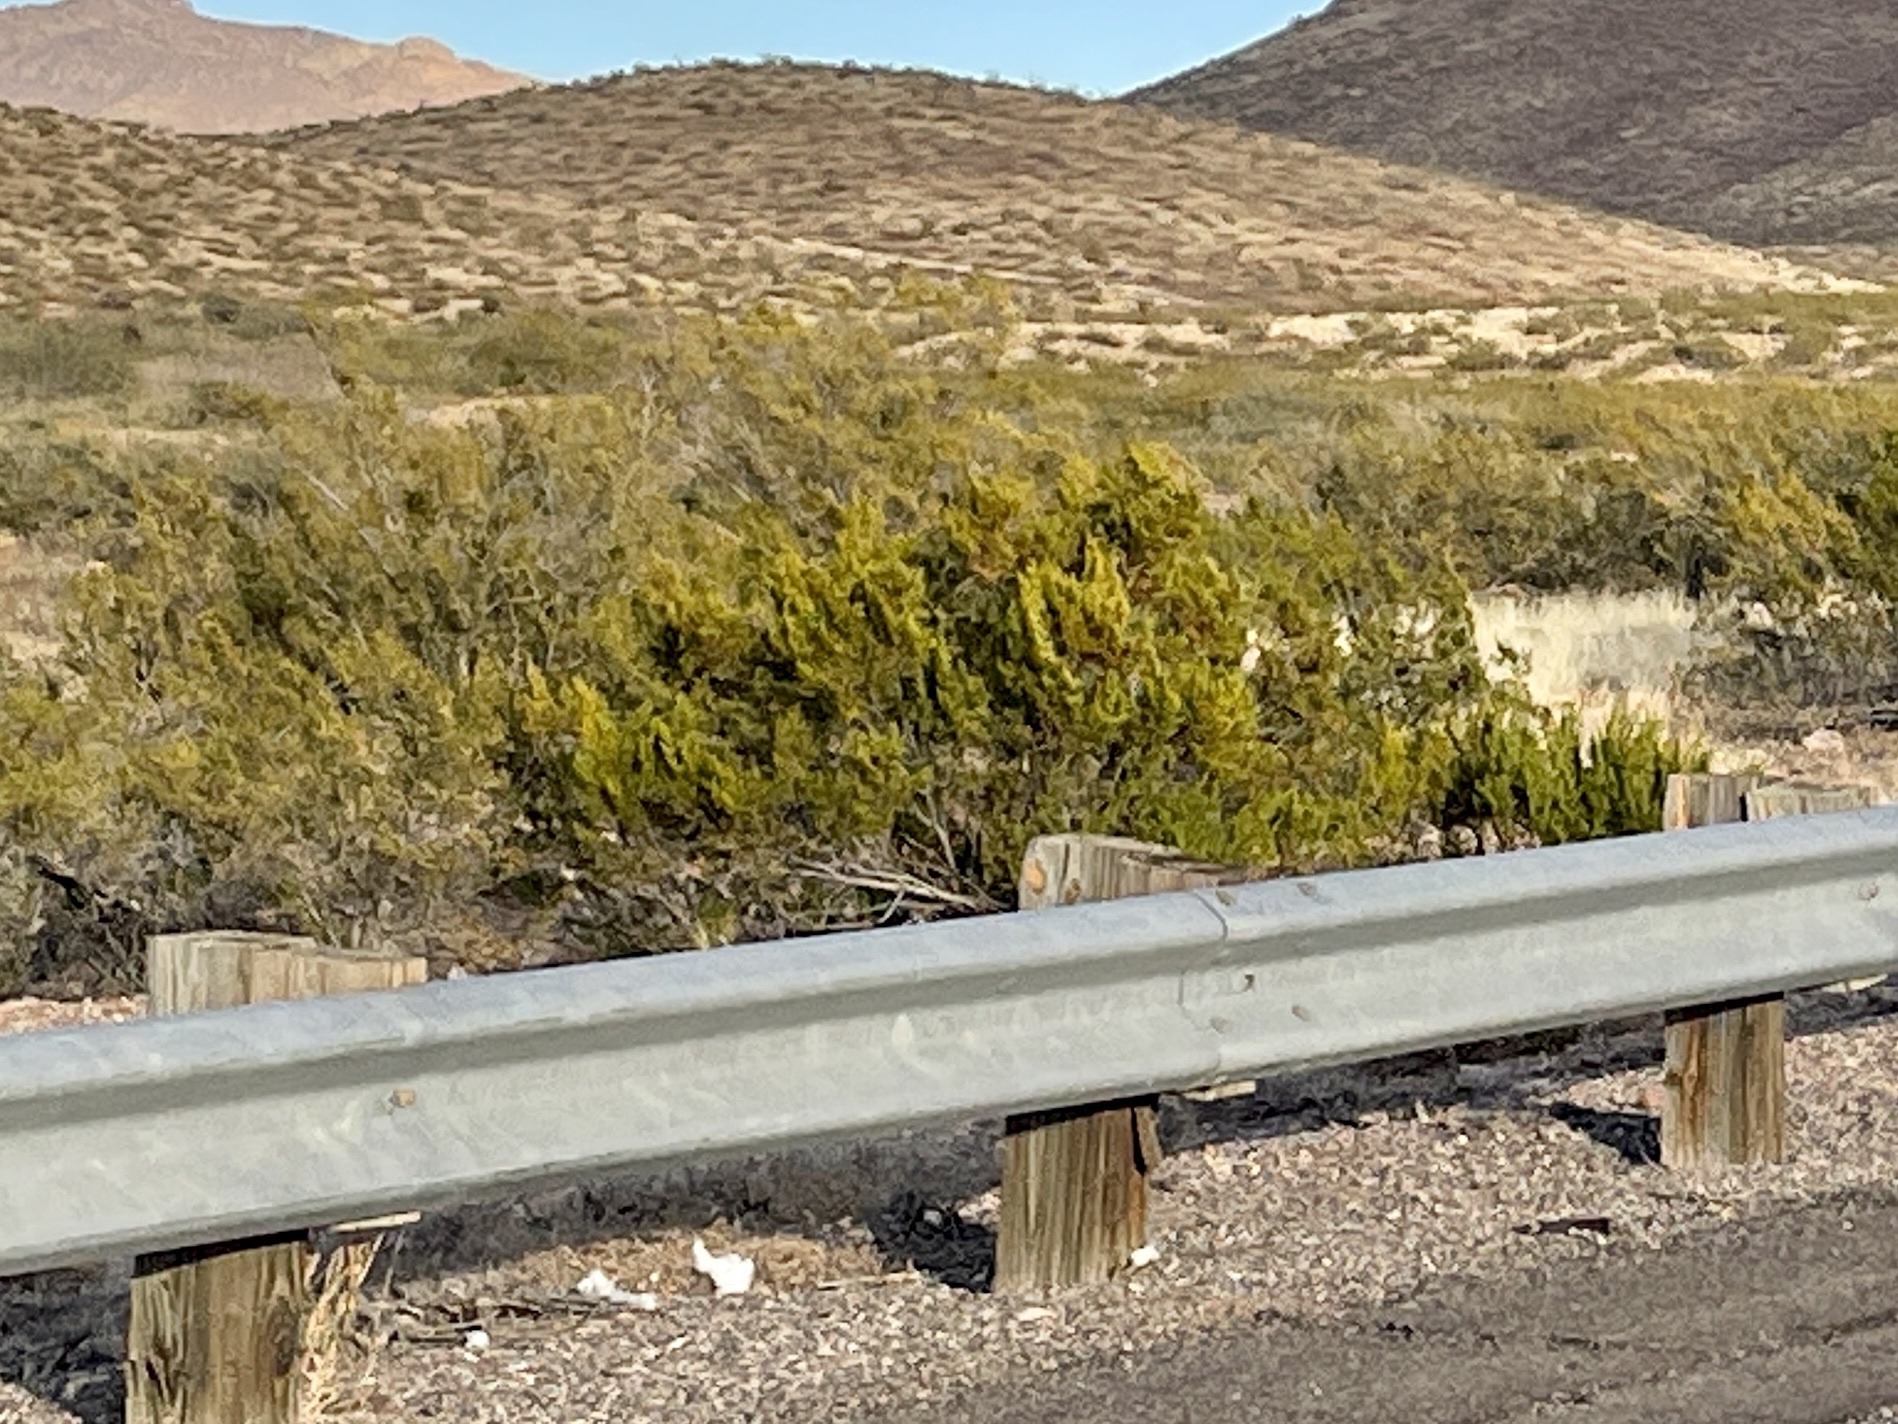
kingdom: Plantae
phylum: Tracheophyta
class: Magnoliopsida
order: Zygophyllales
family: Zygophyllaceae
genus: Larrea
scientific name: Larrea tridentata
